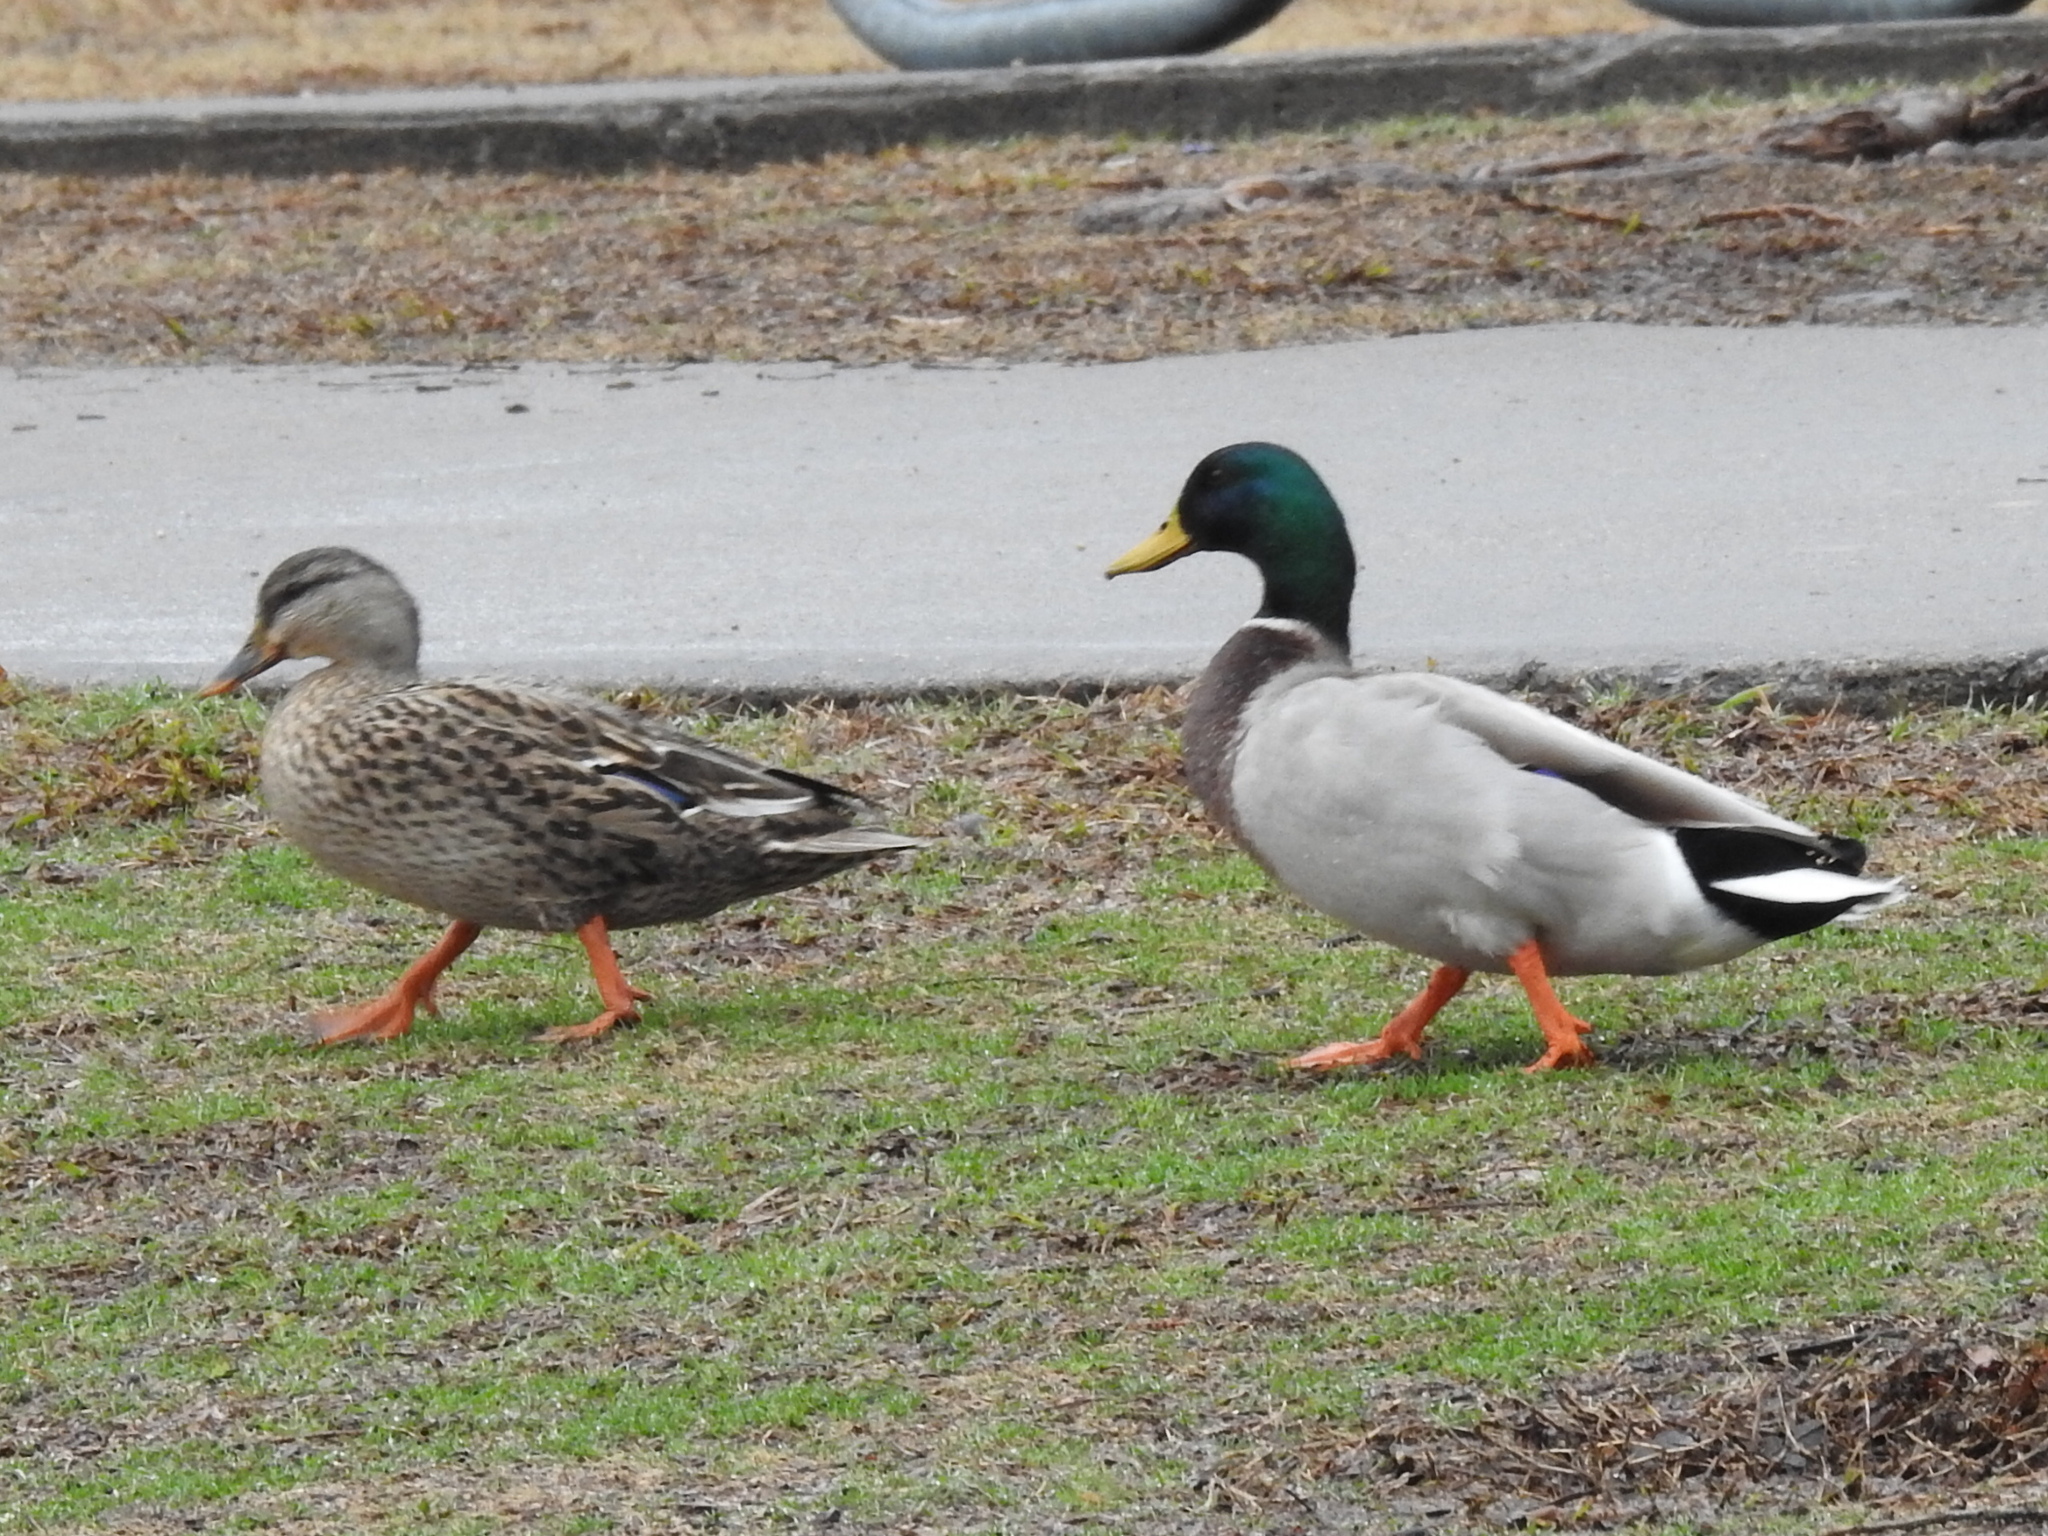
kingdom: Animalia
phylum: Chordata
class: Aves
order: Anseriformes
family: Anatidae
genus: Anas
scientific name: Anas platyrhynchos
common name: Mallard
